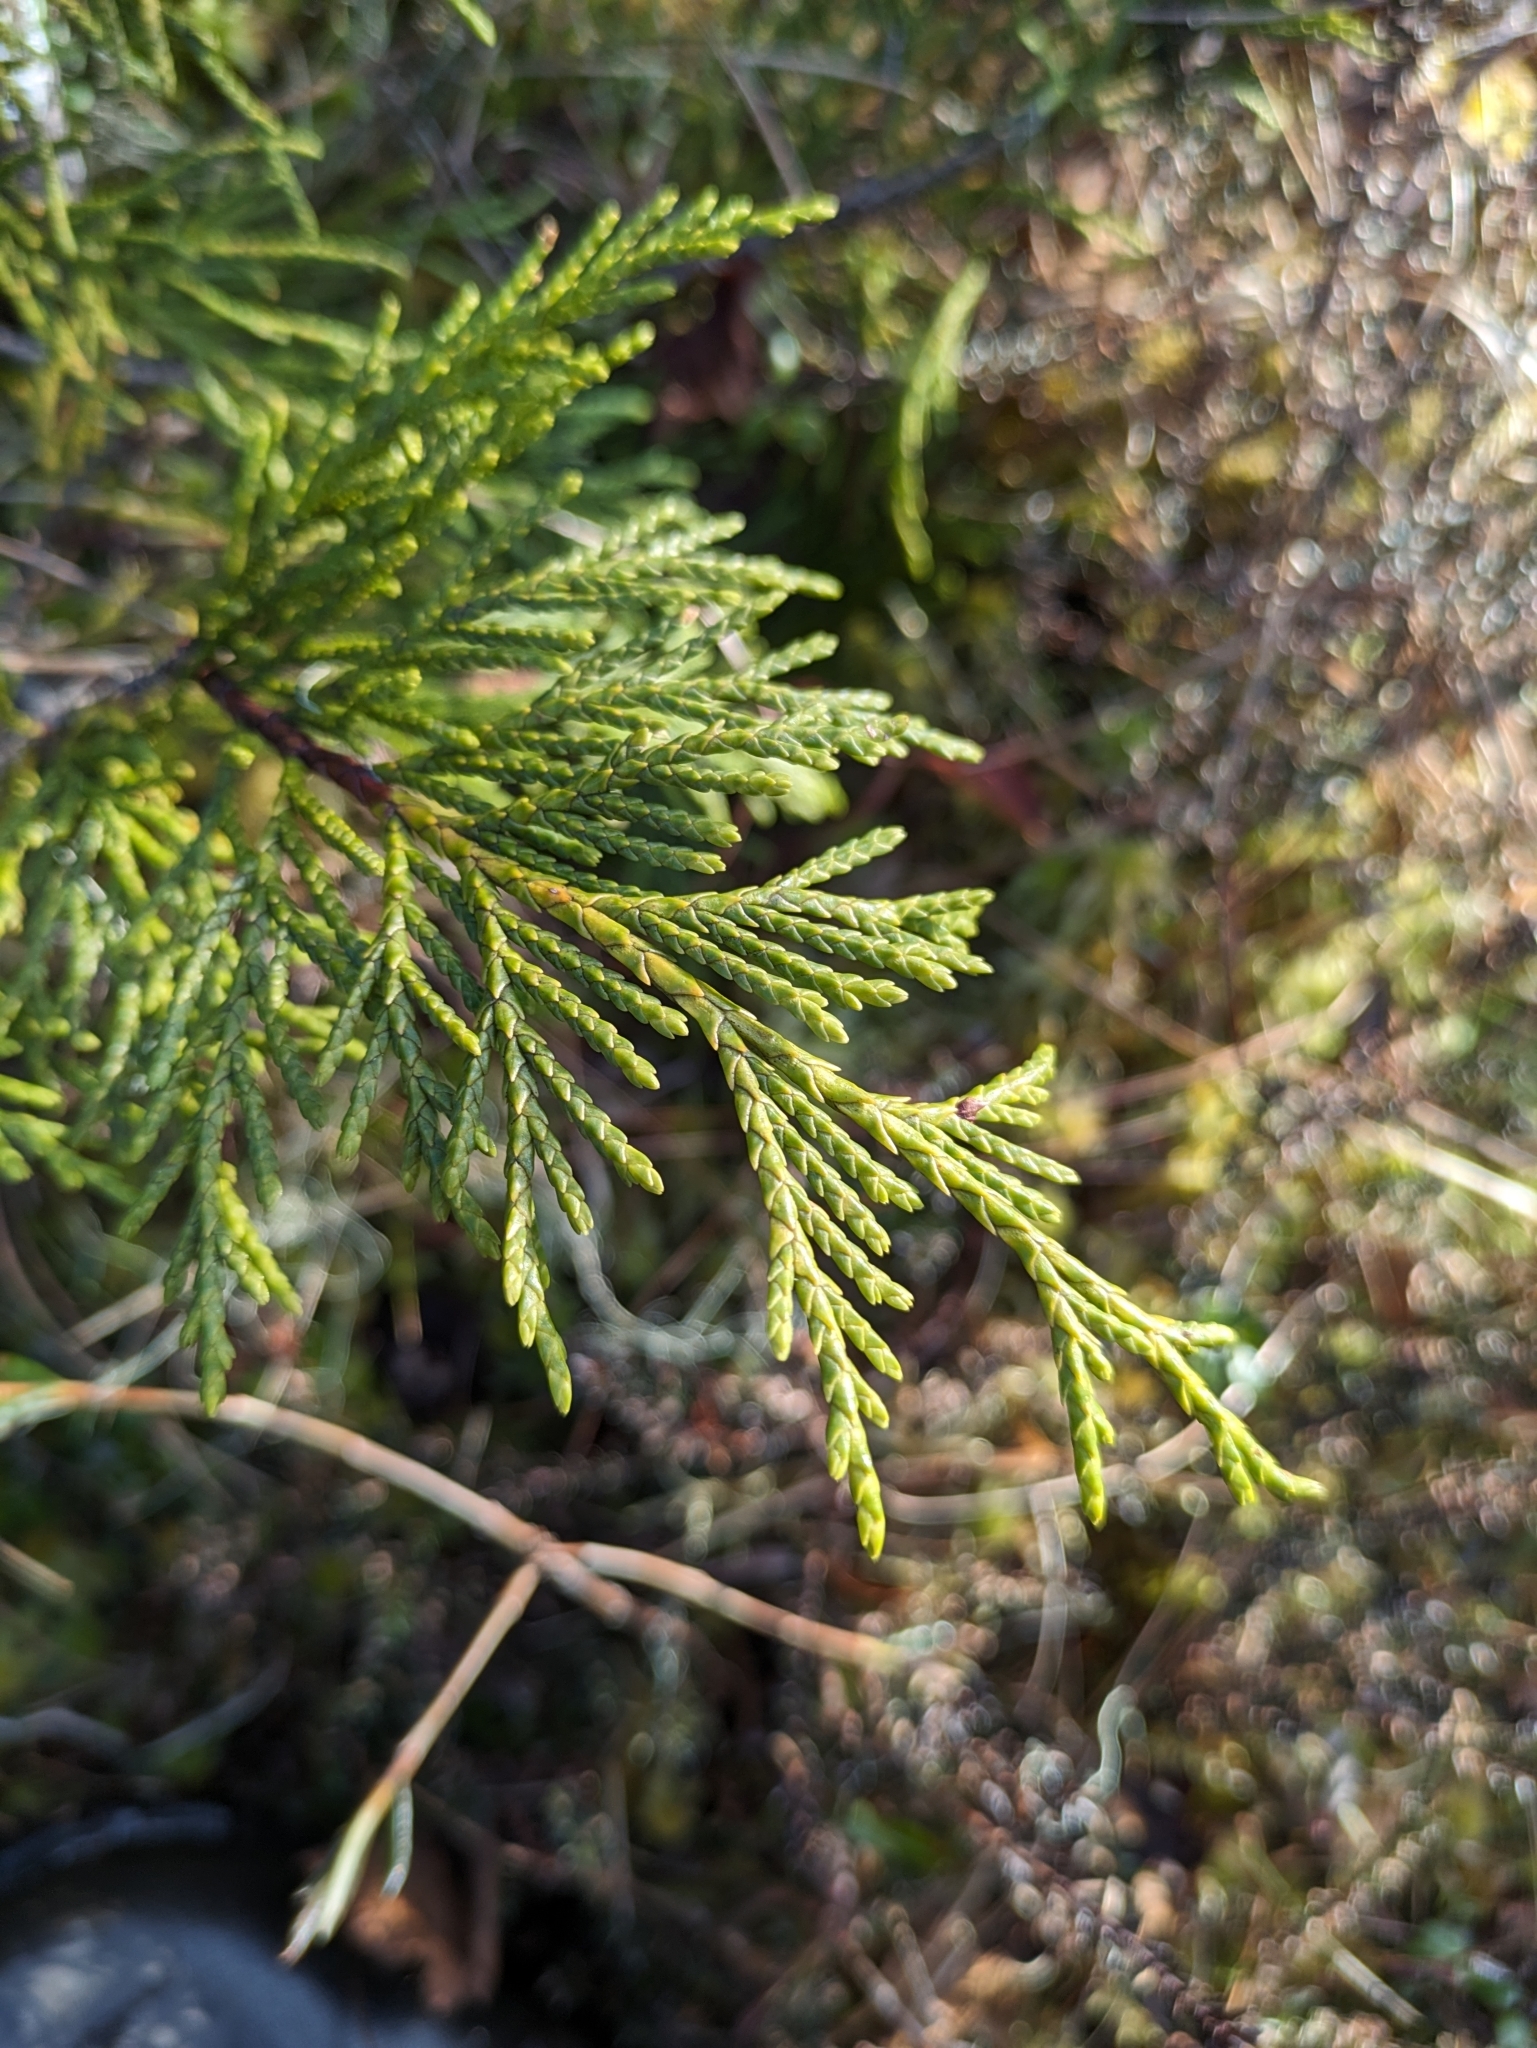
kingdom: Plantae
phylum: Tracheophyta
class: Pinopsida
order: Pinales
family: Cupressaceae
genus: Xanthocyparis
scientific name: Xanthocyparis nootkatensis
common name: Nootka cypress
